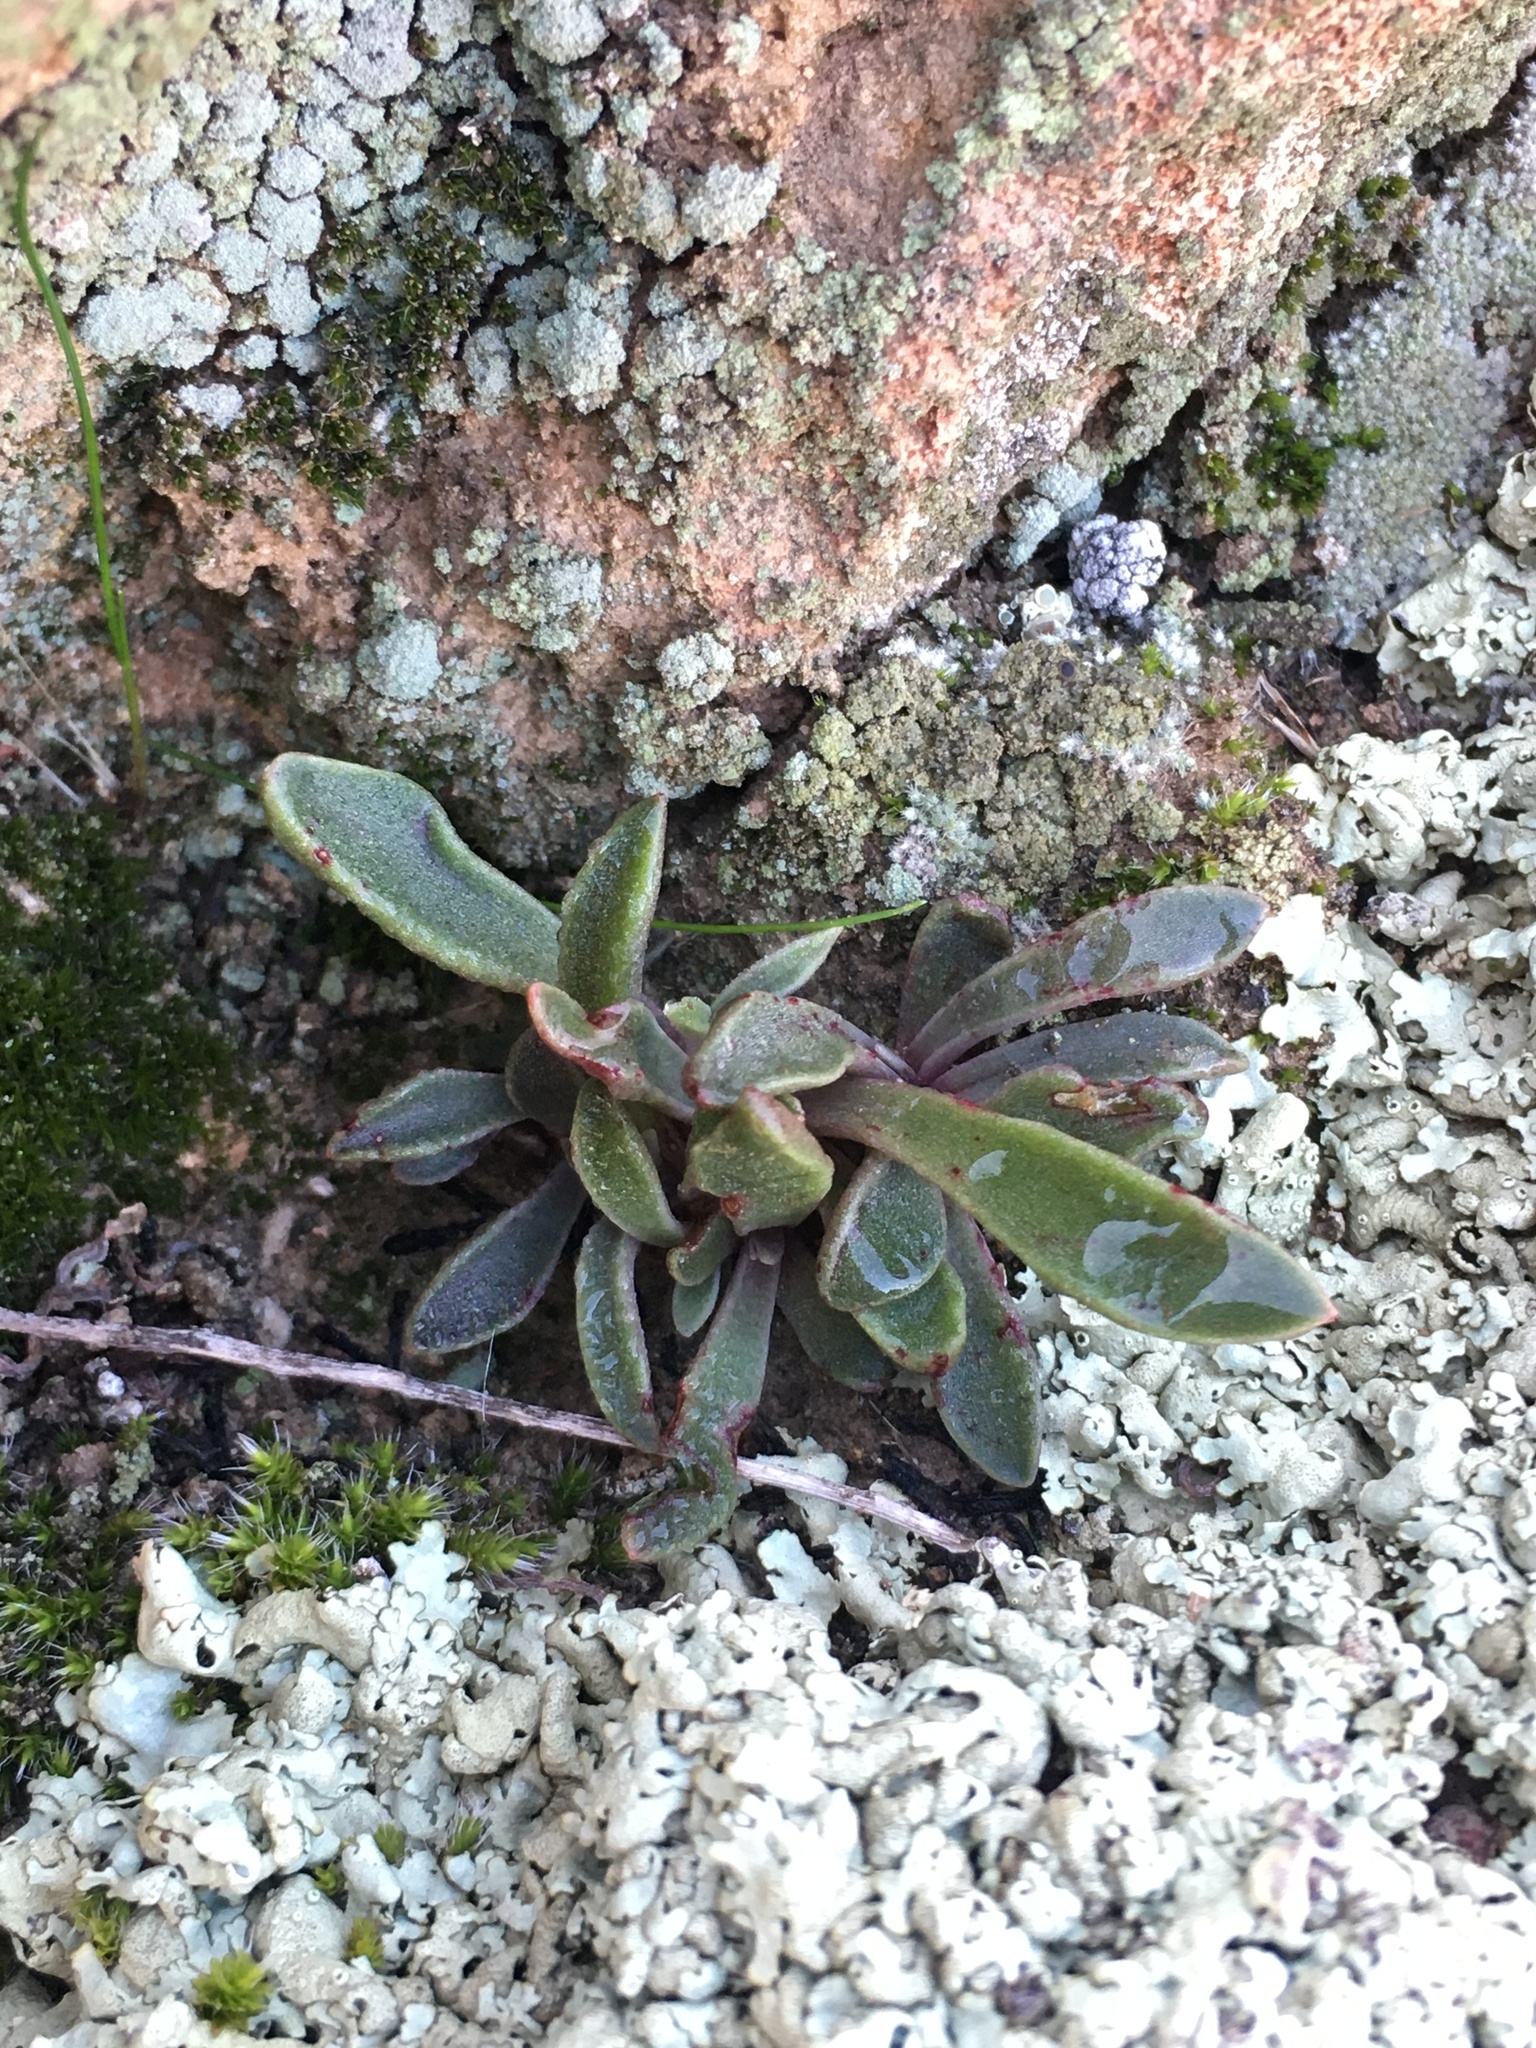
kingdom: Plantae
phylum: Tracheophyta
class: Magnoliopsida
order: Saxifragales
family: Crassulaceae
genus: Dudleya
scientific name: Dudleya parva
